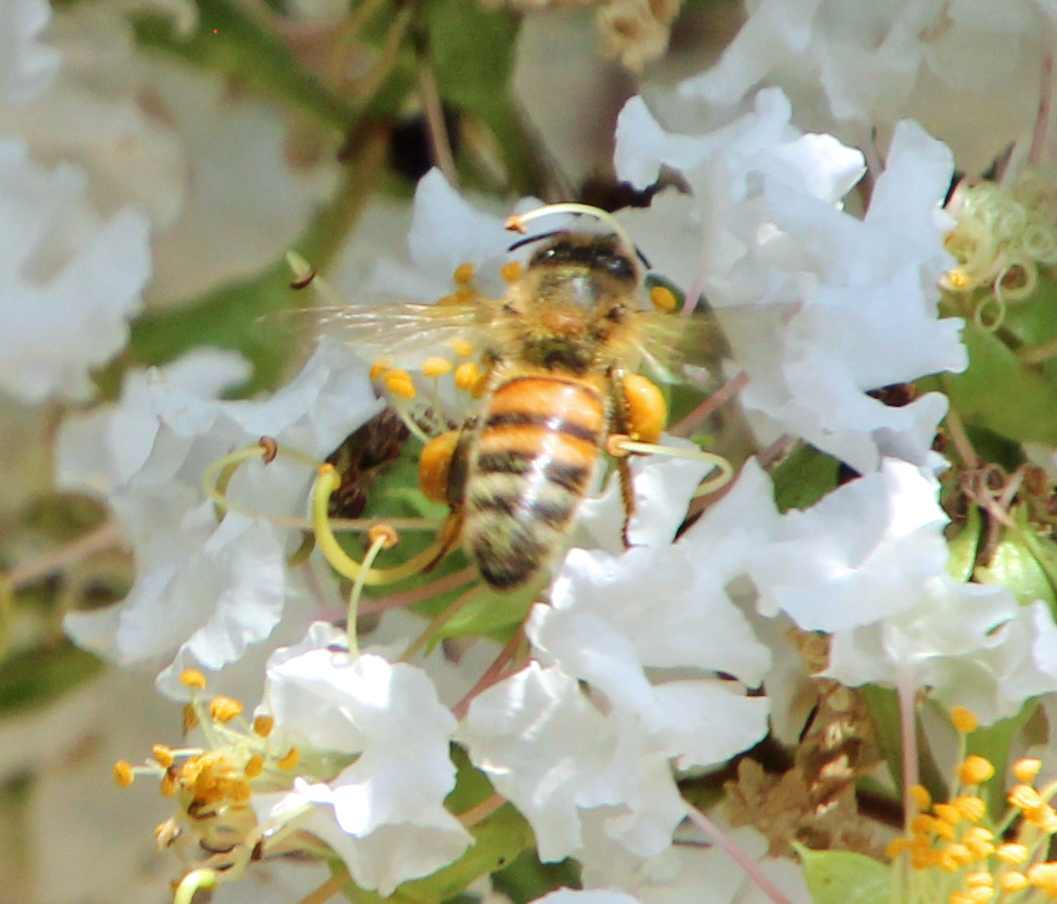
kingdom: Animalia
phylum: Arthropoda
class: Insecta
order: Hymenoptera
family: Apidae
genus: Apis
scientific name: Apis mellifera
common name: Honey bee
